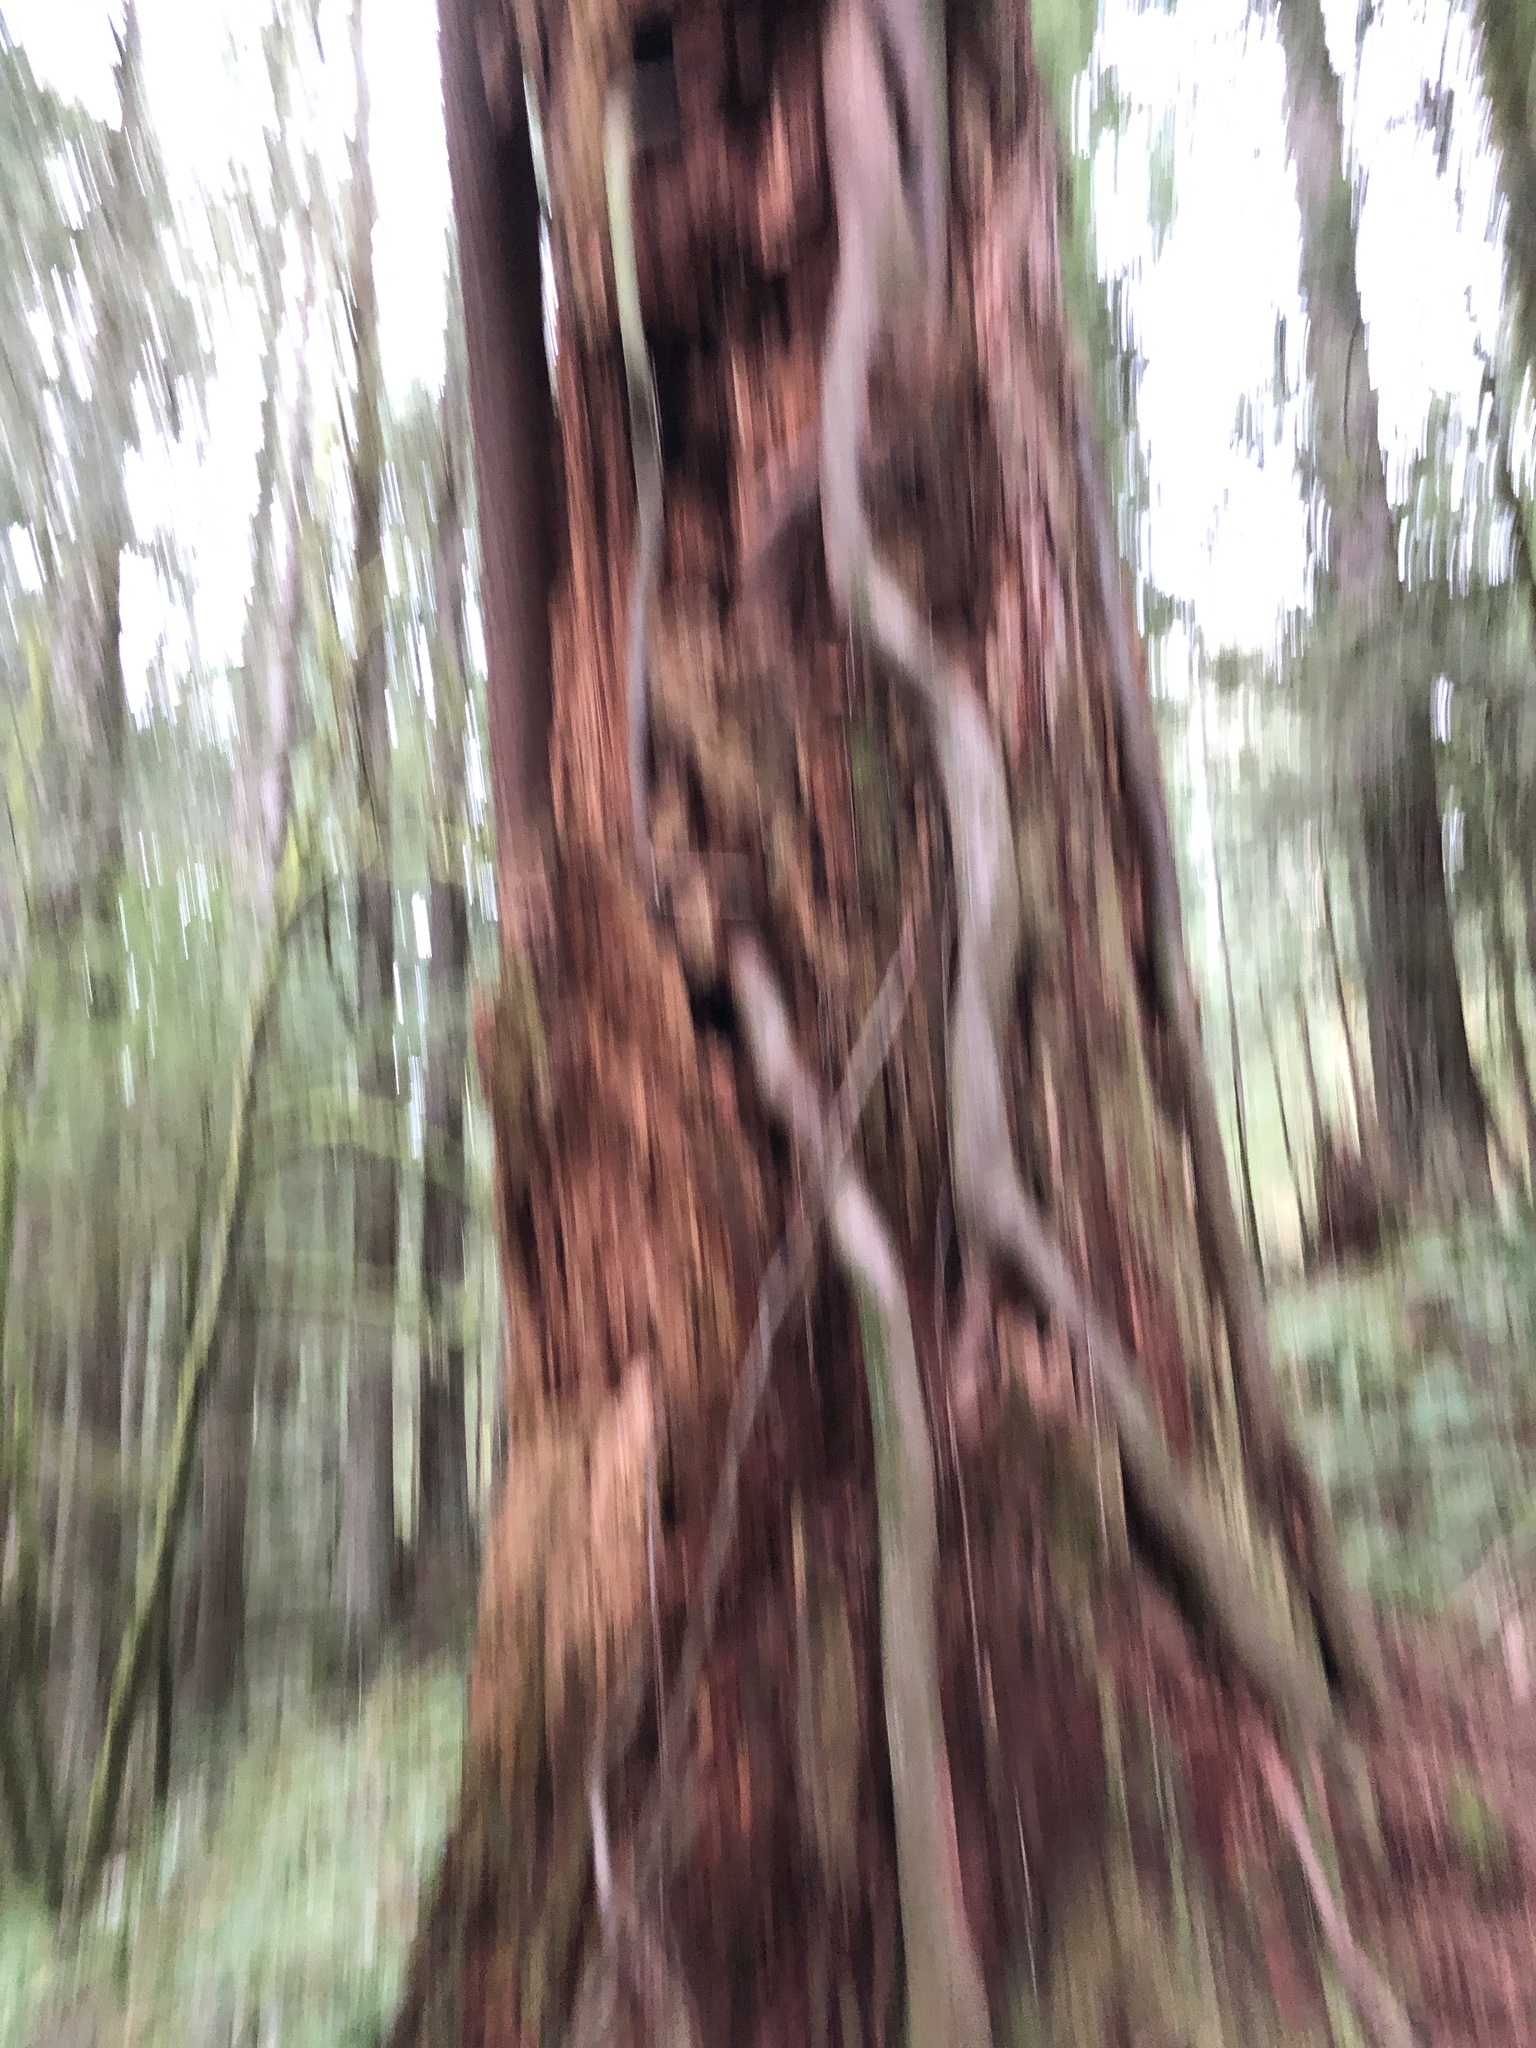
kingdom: Plantae
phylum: Tracheophyta
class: Pinopsida
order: Pinales
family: Pinaceae
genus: Tsuga
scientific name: Tsuga heterophylla
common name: Western hemlock
